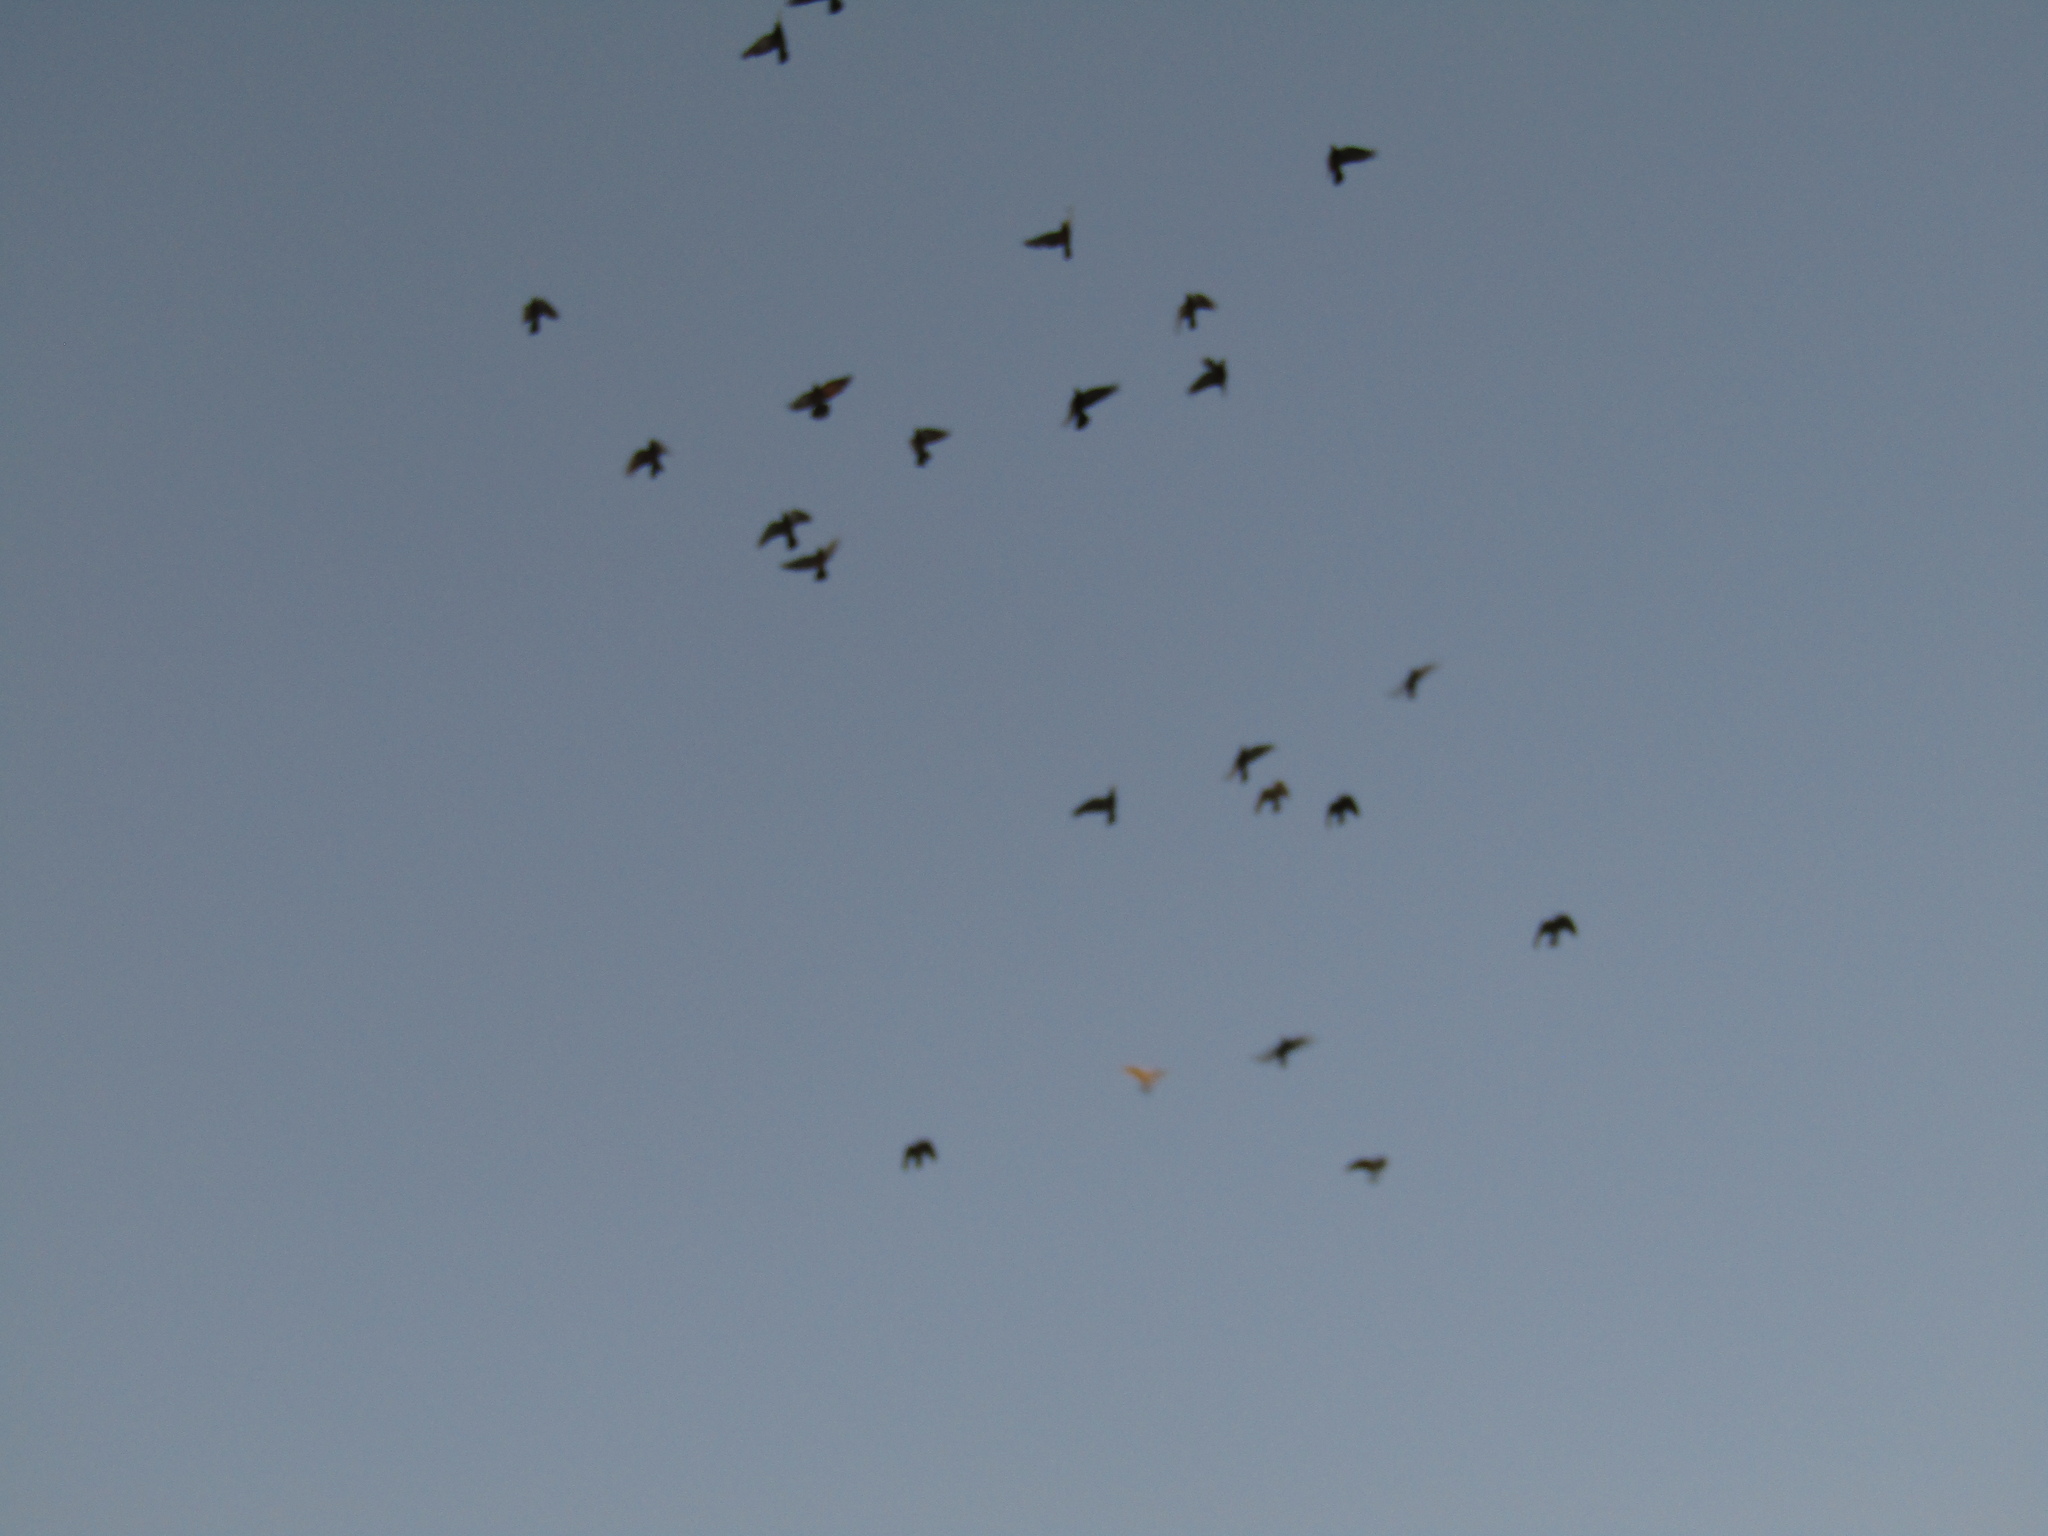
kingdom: Animalia
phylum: Chordata
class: Aves
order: Columbiformes
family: Columbidae
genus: Columba
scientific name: Columba livia
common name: Rock pigeon
